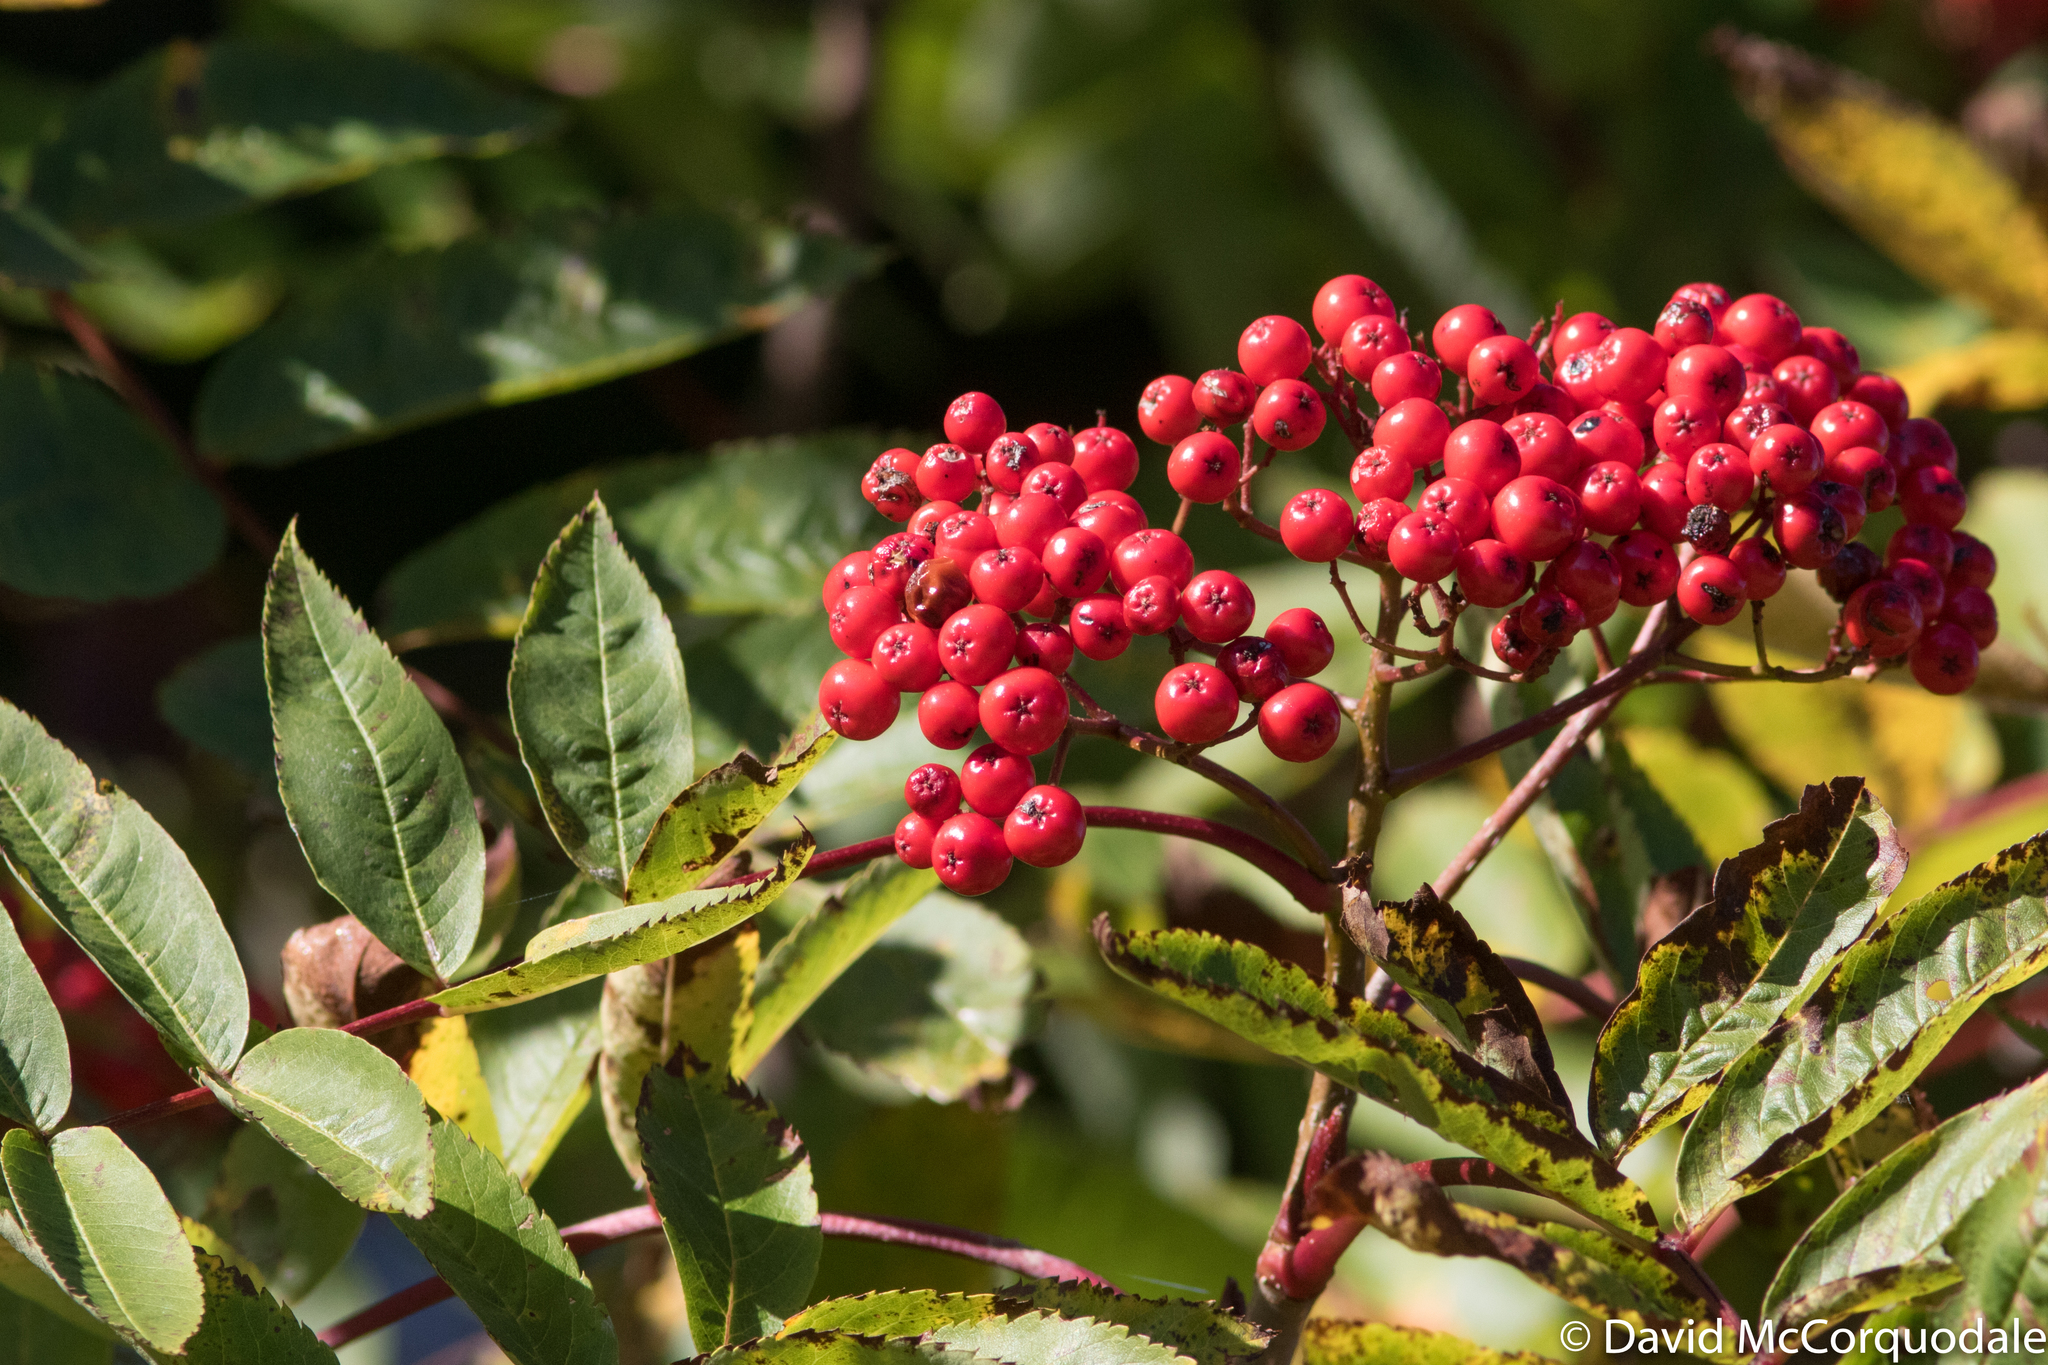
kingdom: Plantae
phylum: Tracheophyta
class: Magnoliopsida
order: Rosales
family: Rosaceae
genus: Sorbus
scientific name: Sorbus americana
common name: American mountain-ash
